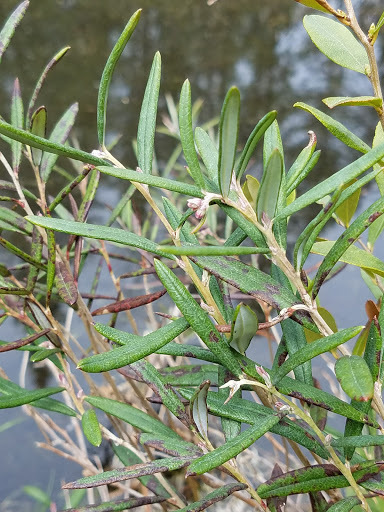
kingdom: Plantae
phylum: Tracheophyta
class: Magnoliopsida
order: Ericales
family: Ericaceae
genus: Andromeda
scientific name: Andromeda polifolia
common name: Bog-rosemary
